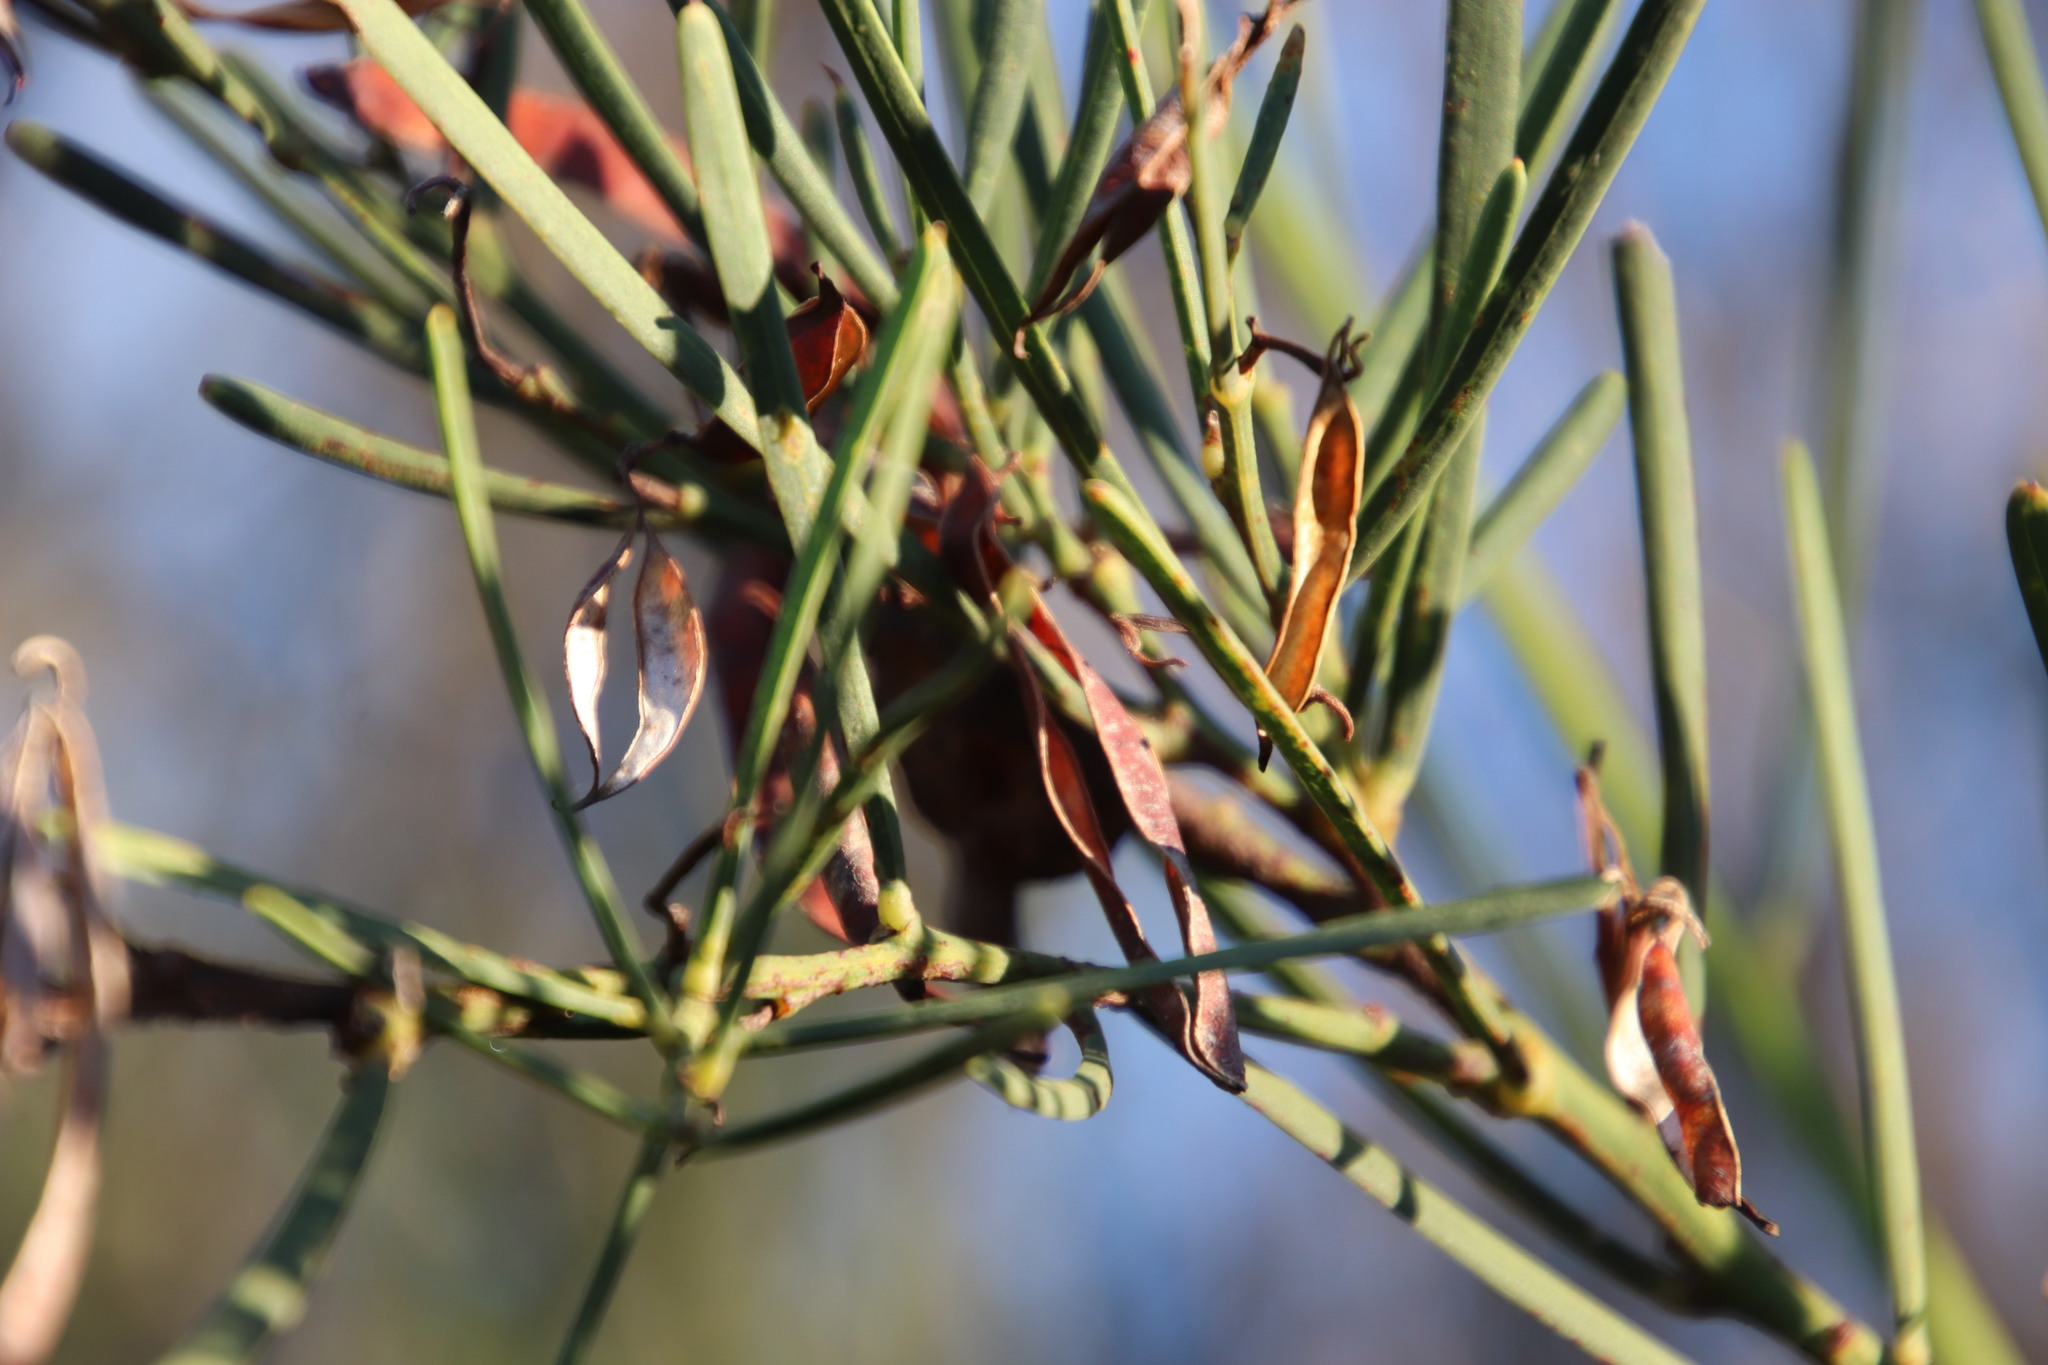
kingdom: Plantae
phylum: Tracheophyta
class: Magnoliopsida
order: Fabales
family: Fabaceae
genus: Acacia
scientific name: Acacia crassiuscula
